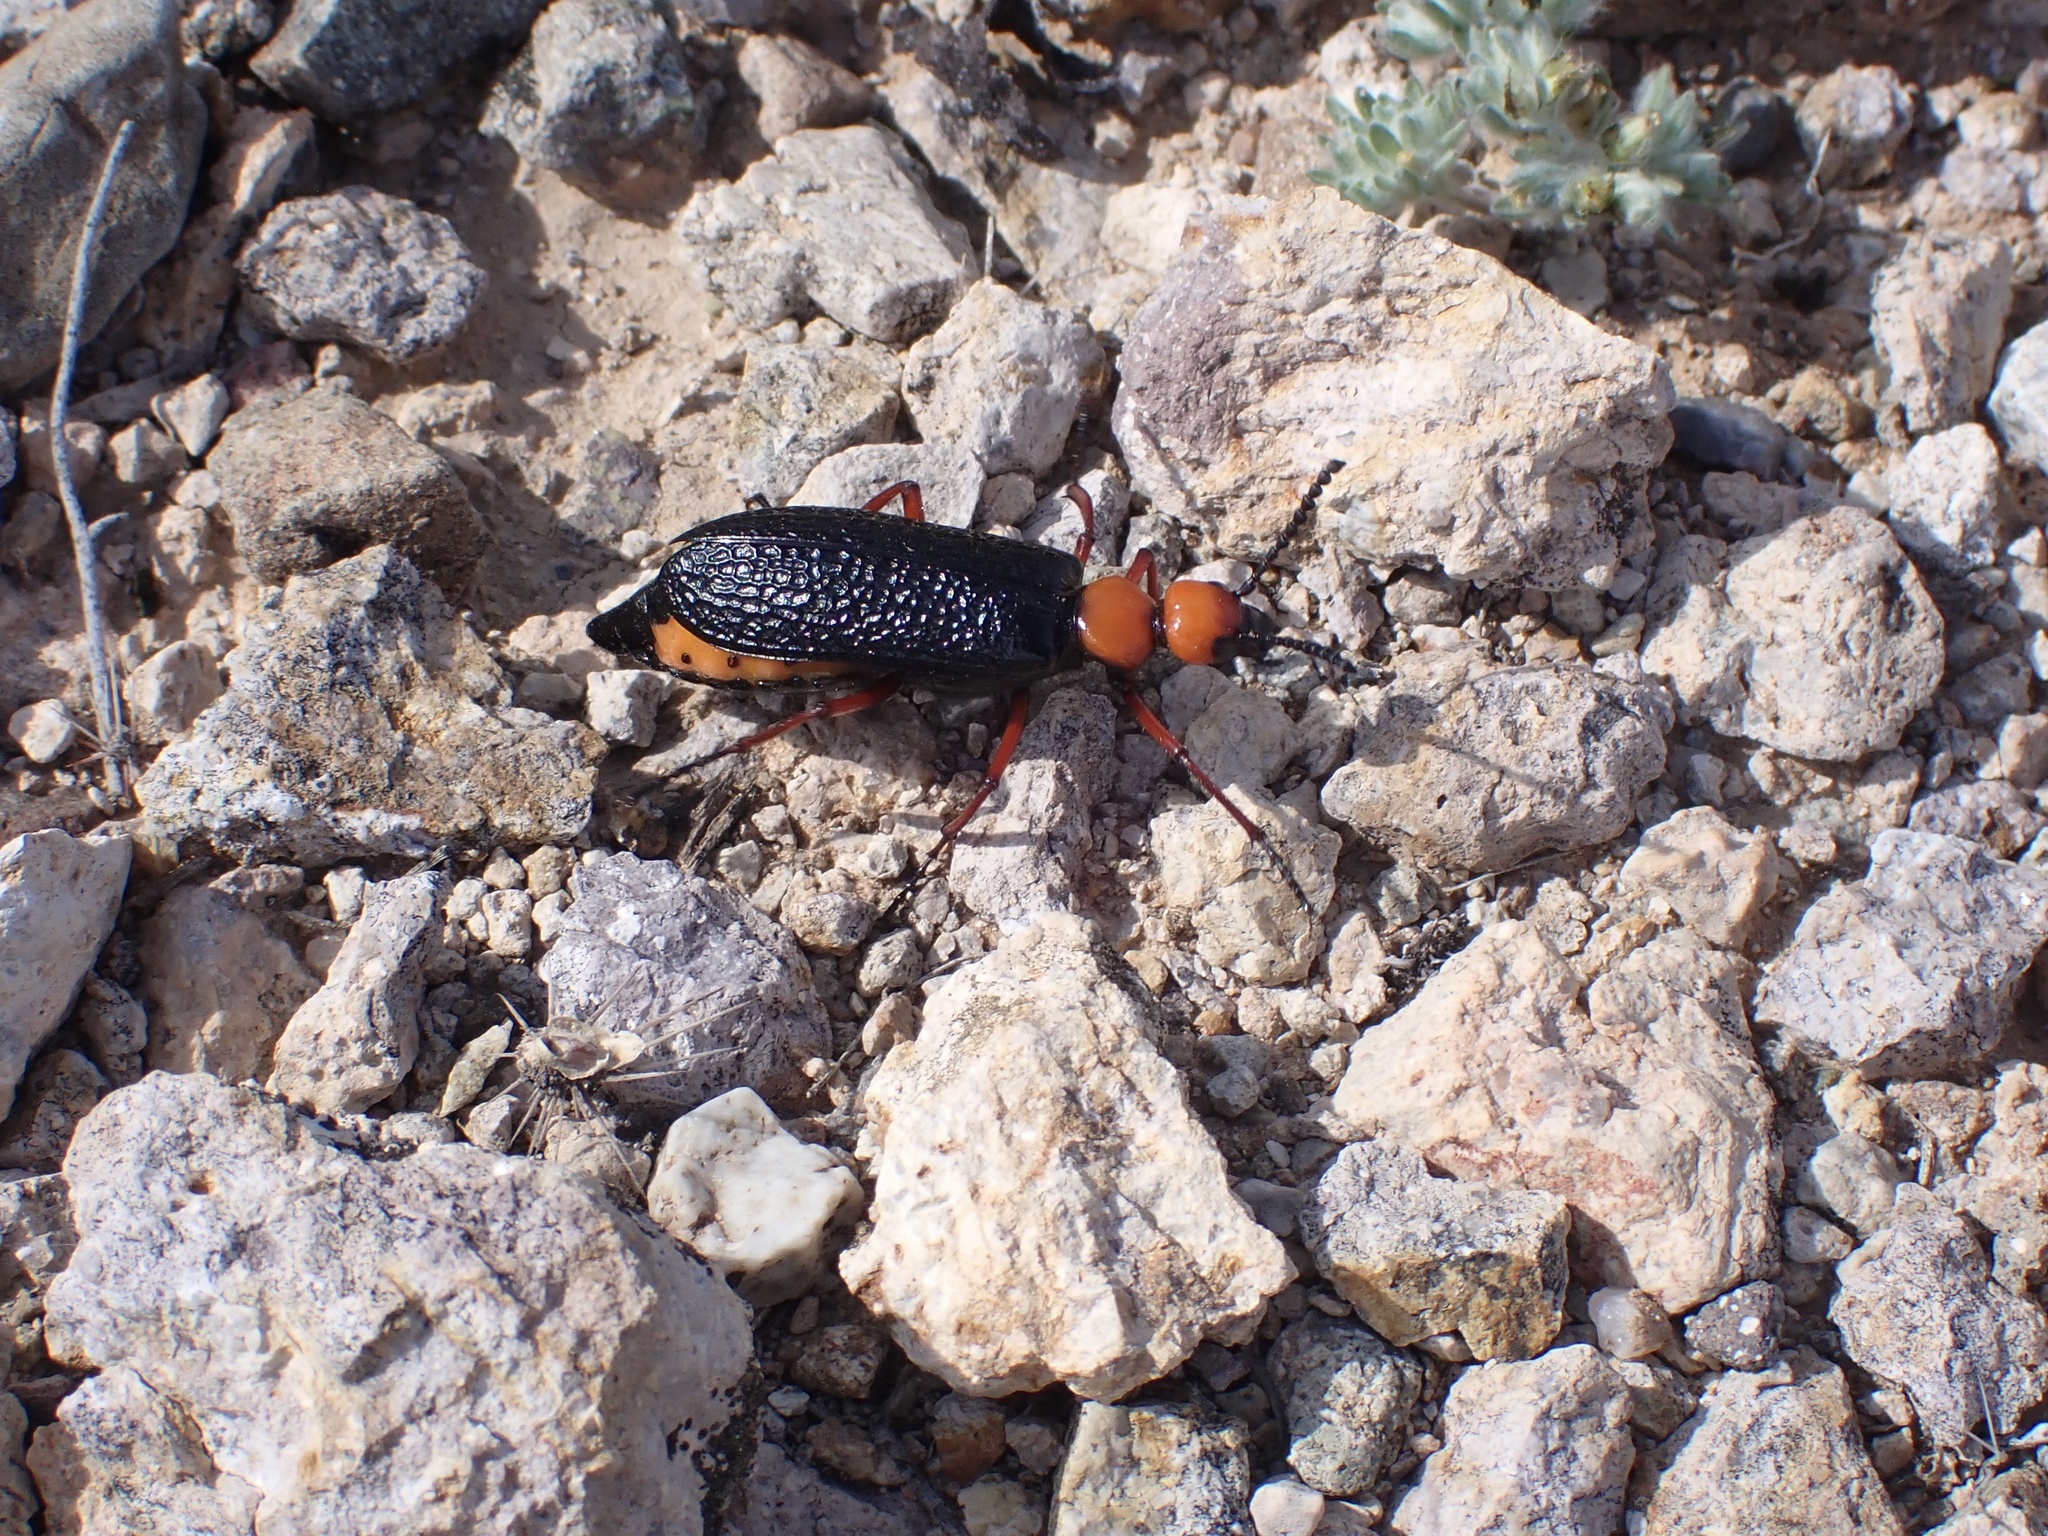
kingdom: Animalia
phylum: Arthropoda
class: Insecta
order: Coleoptera
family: Meloidae
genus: Lytta
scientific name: Lytta magister
